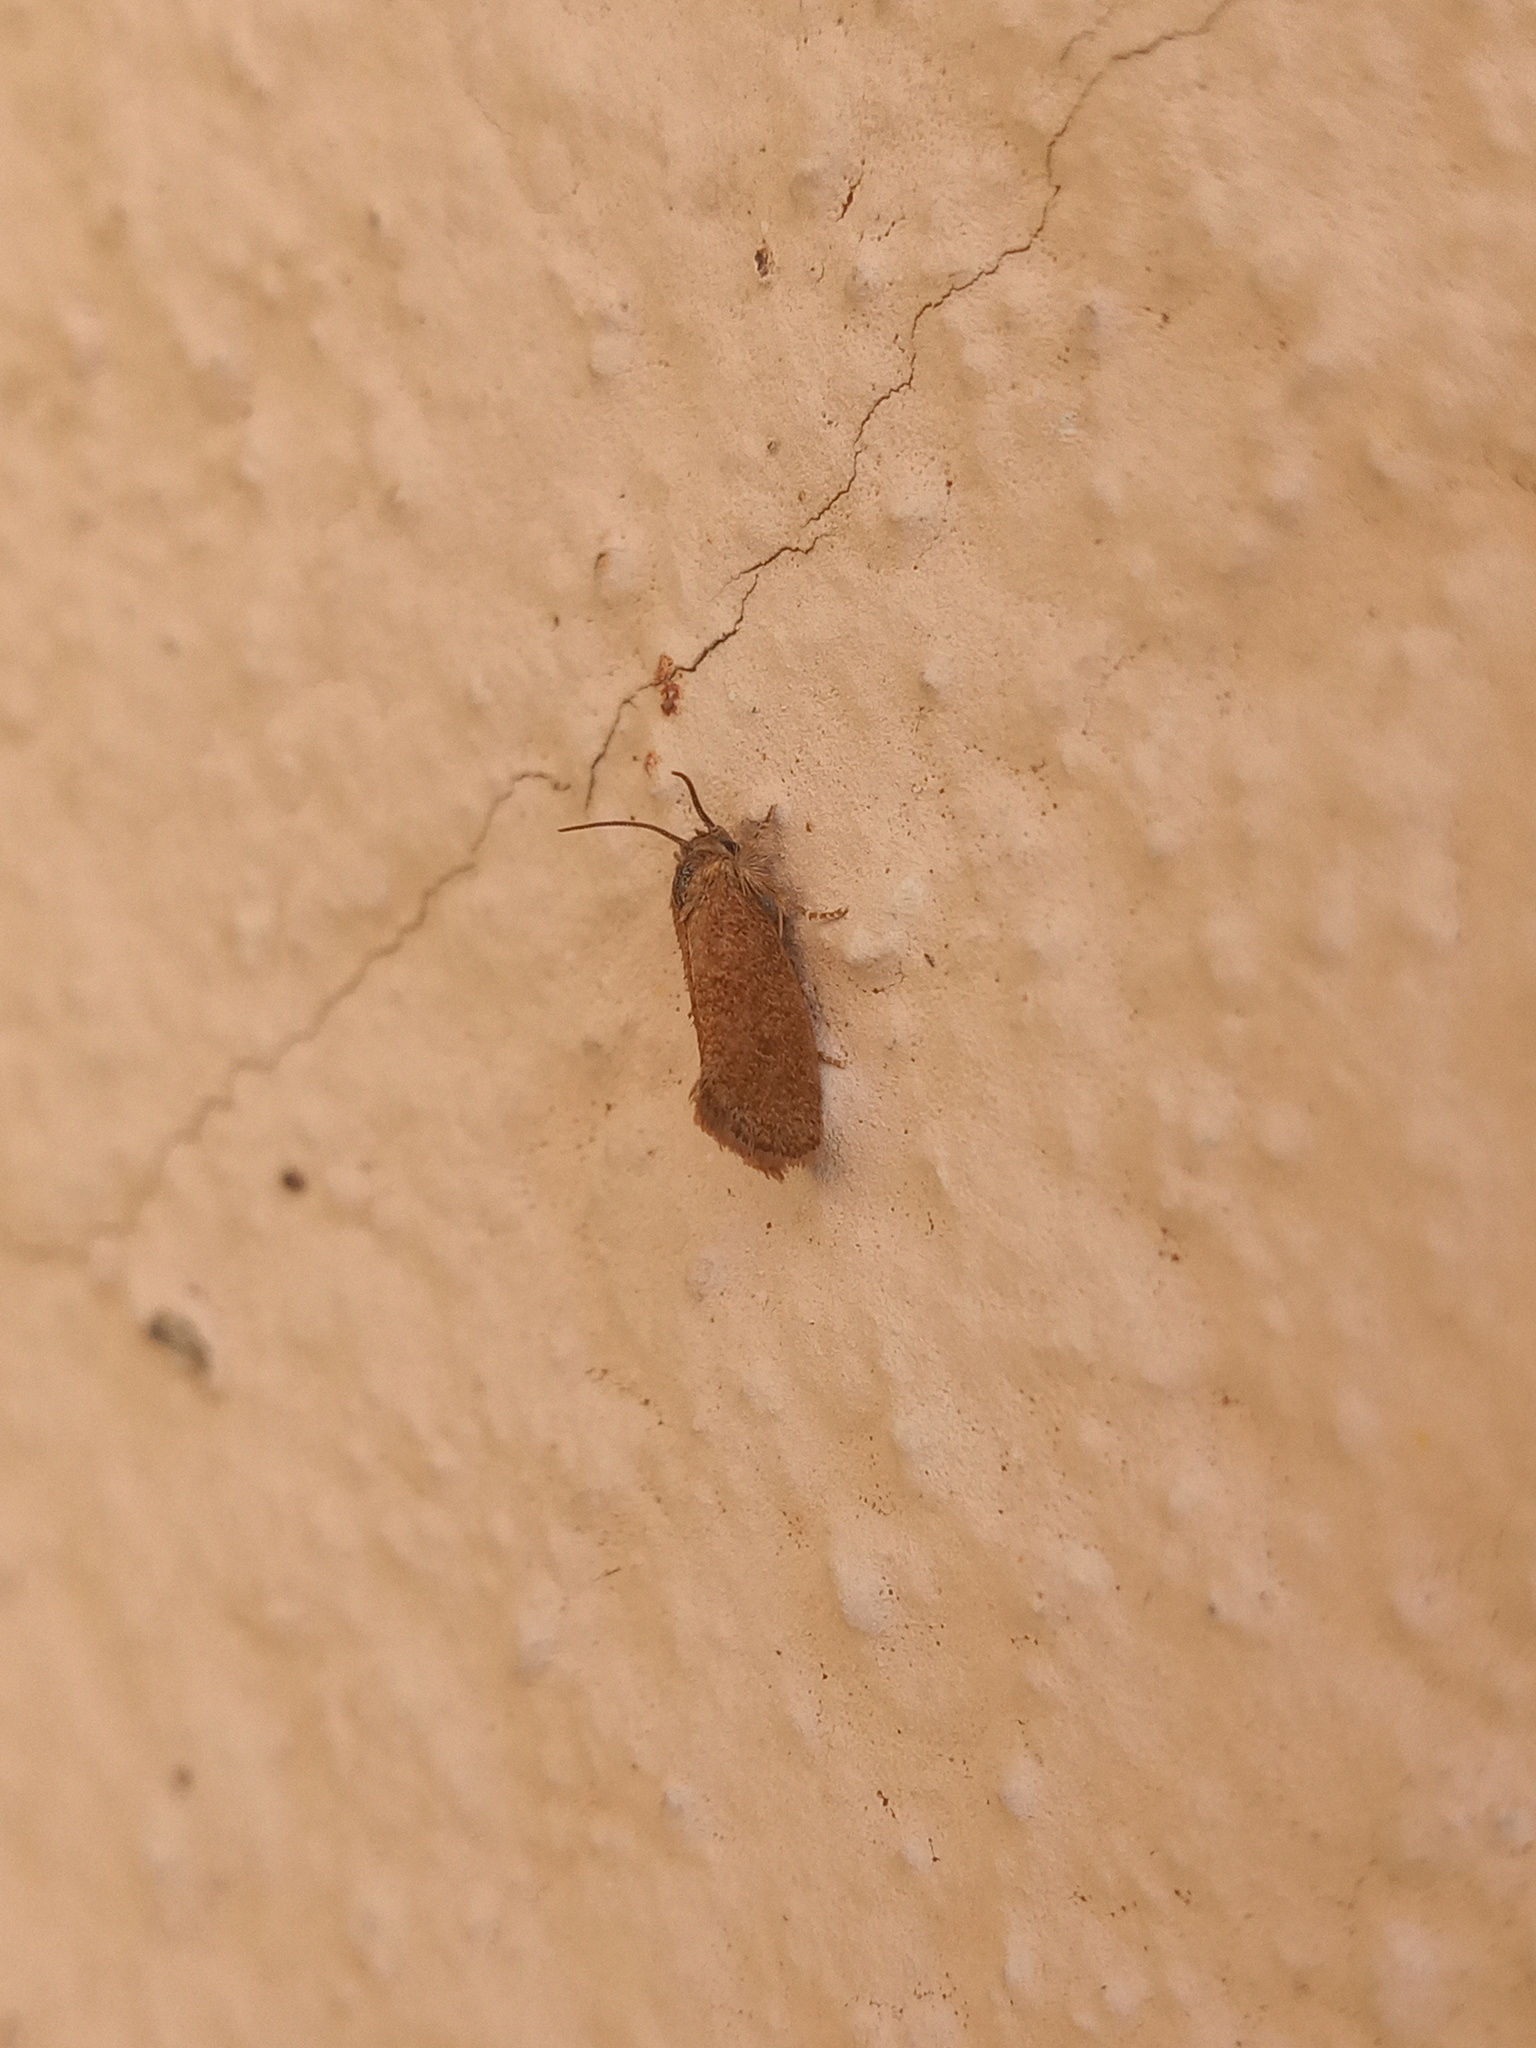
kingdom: Animalia
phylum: Arthropoda
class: Insecta
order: Lepidoptera
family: Tineidae
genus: Acrolophus
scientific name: Acrolophus heppneri
